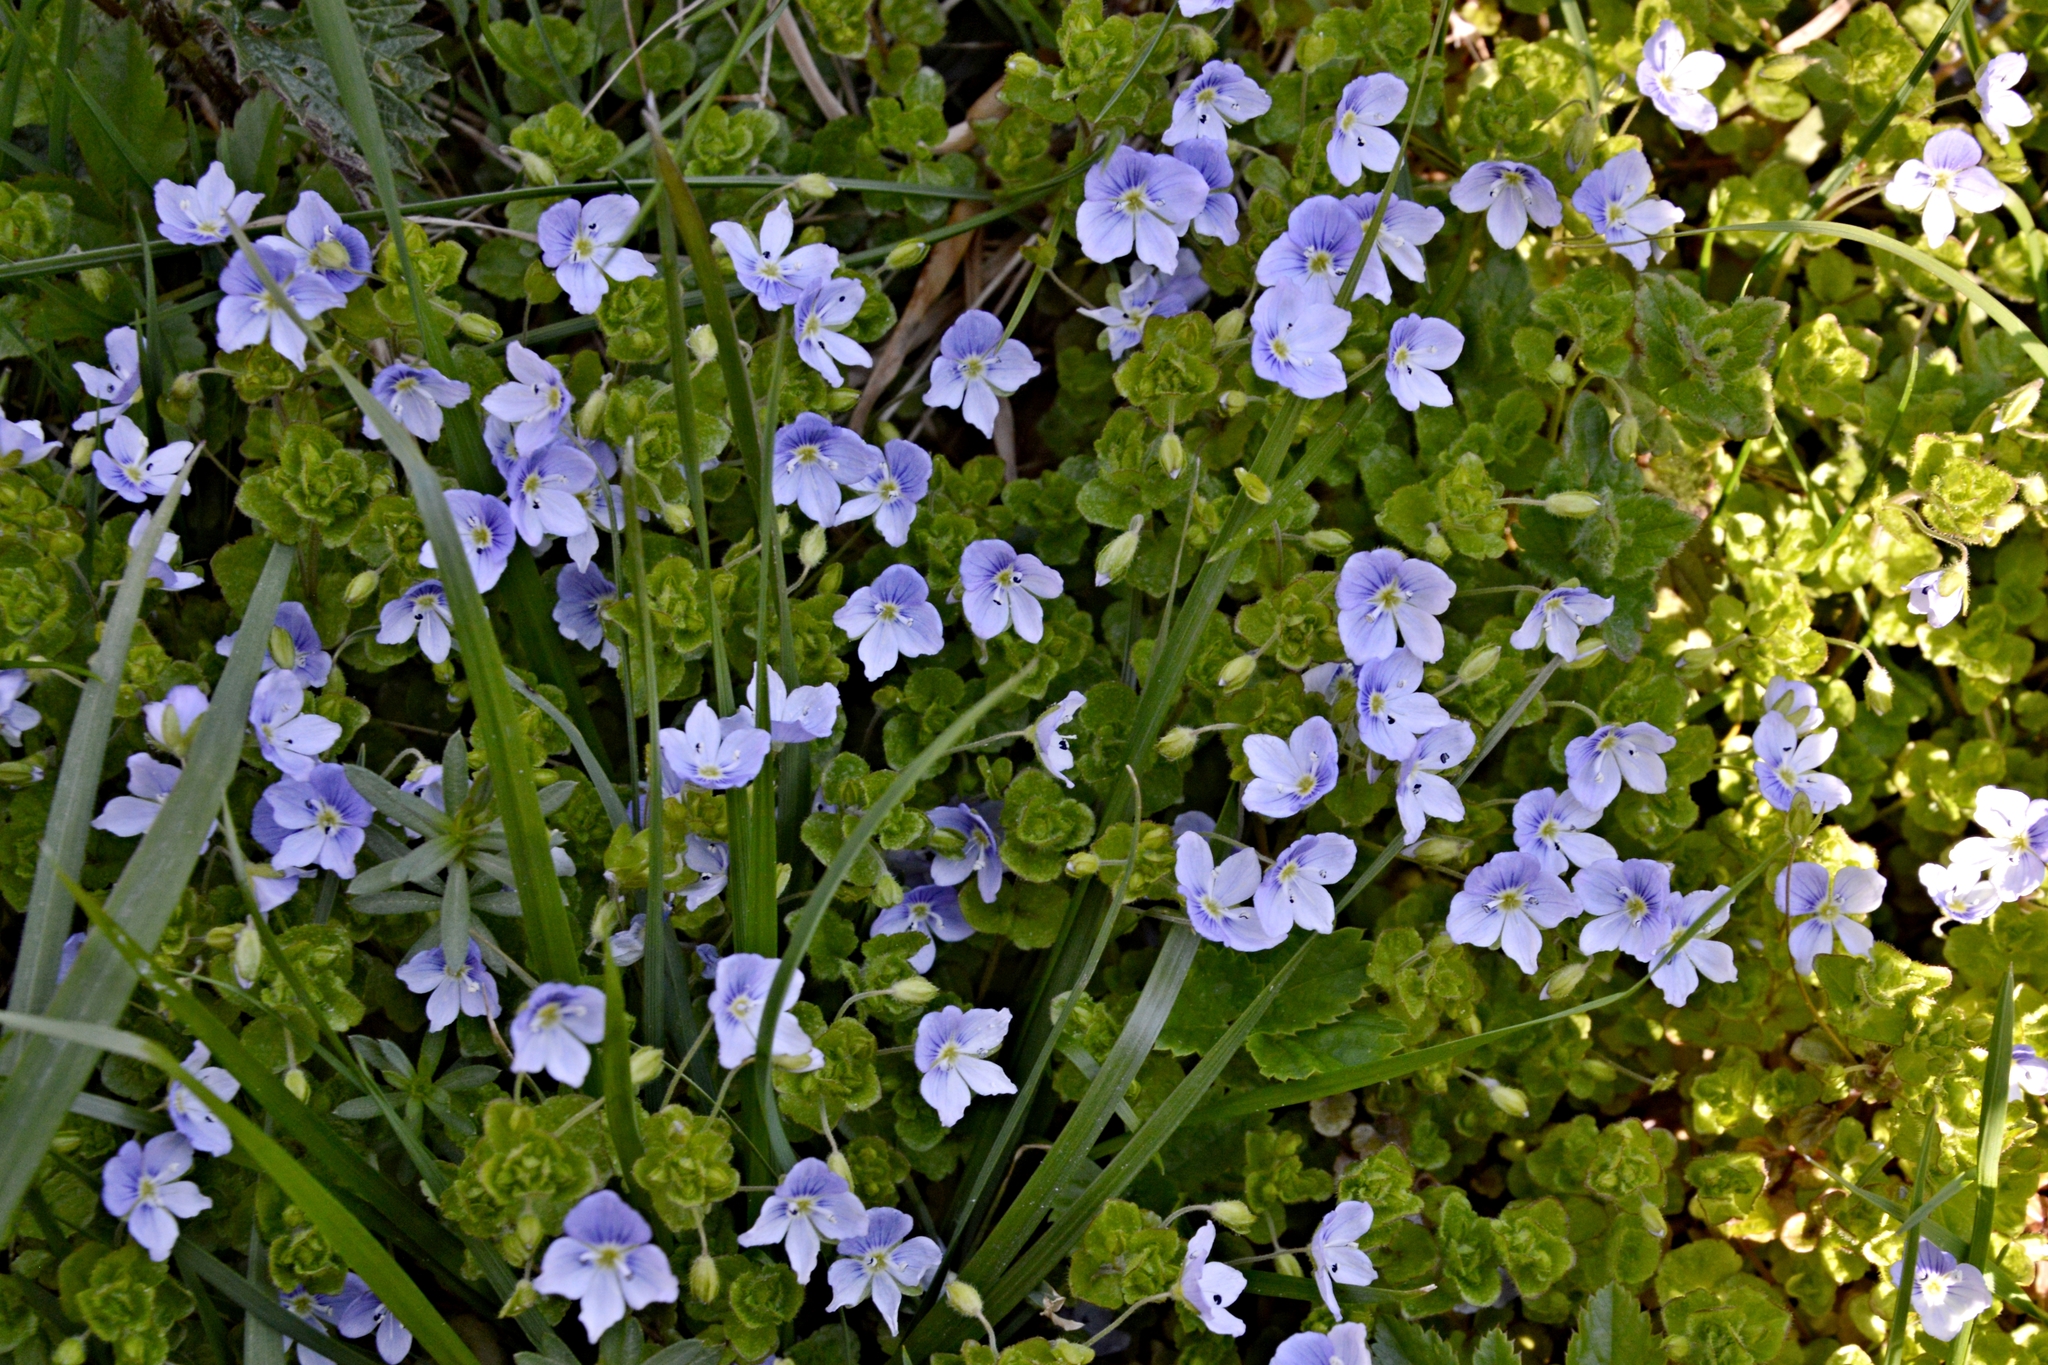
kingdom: Plantae
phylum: Tracheophyta
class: Magnoliopsida
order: Lamiales
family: Plantaginaceae
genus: Veronica
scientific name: Veronica filiformis
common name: Slender speedwell
